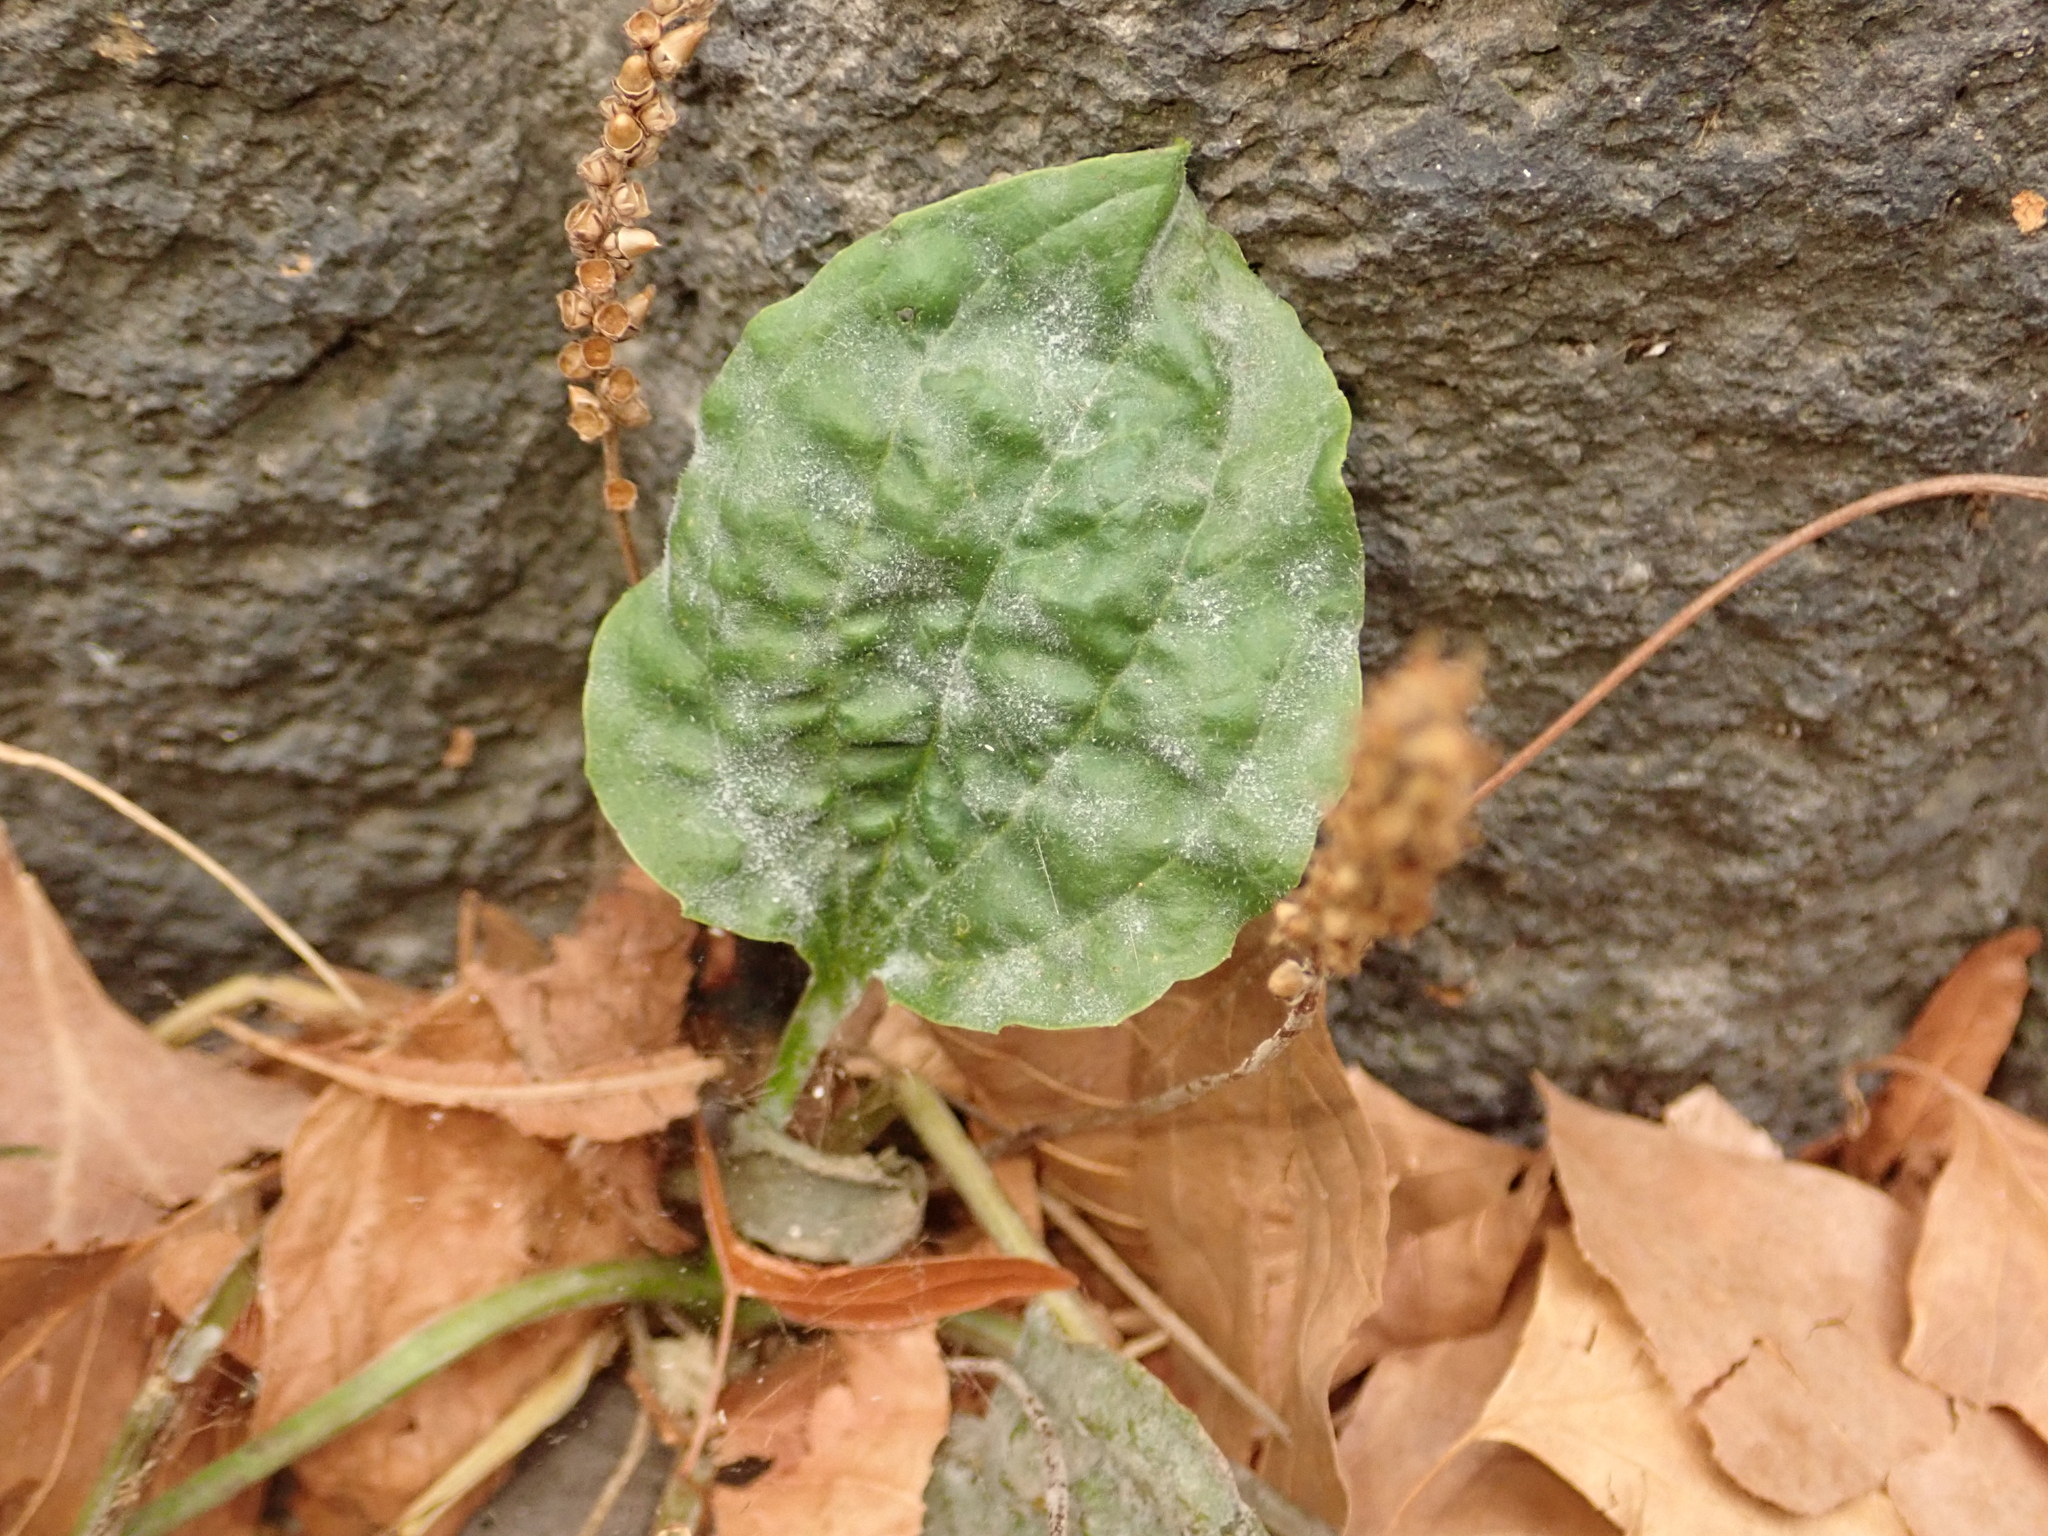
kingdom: Plantae
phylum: Tracheophyta
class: Magnoliopsida
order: Lamiales
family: Plantaginaceae
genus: Plantago
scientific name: Plantago major
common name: Common plantain
